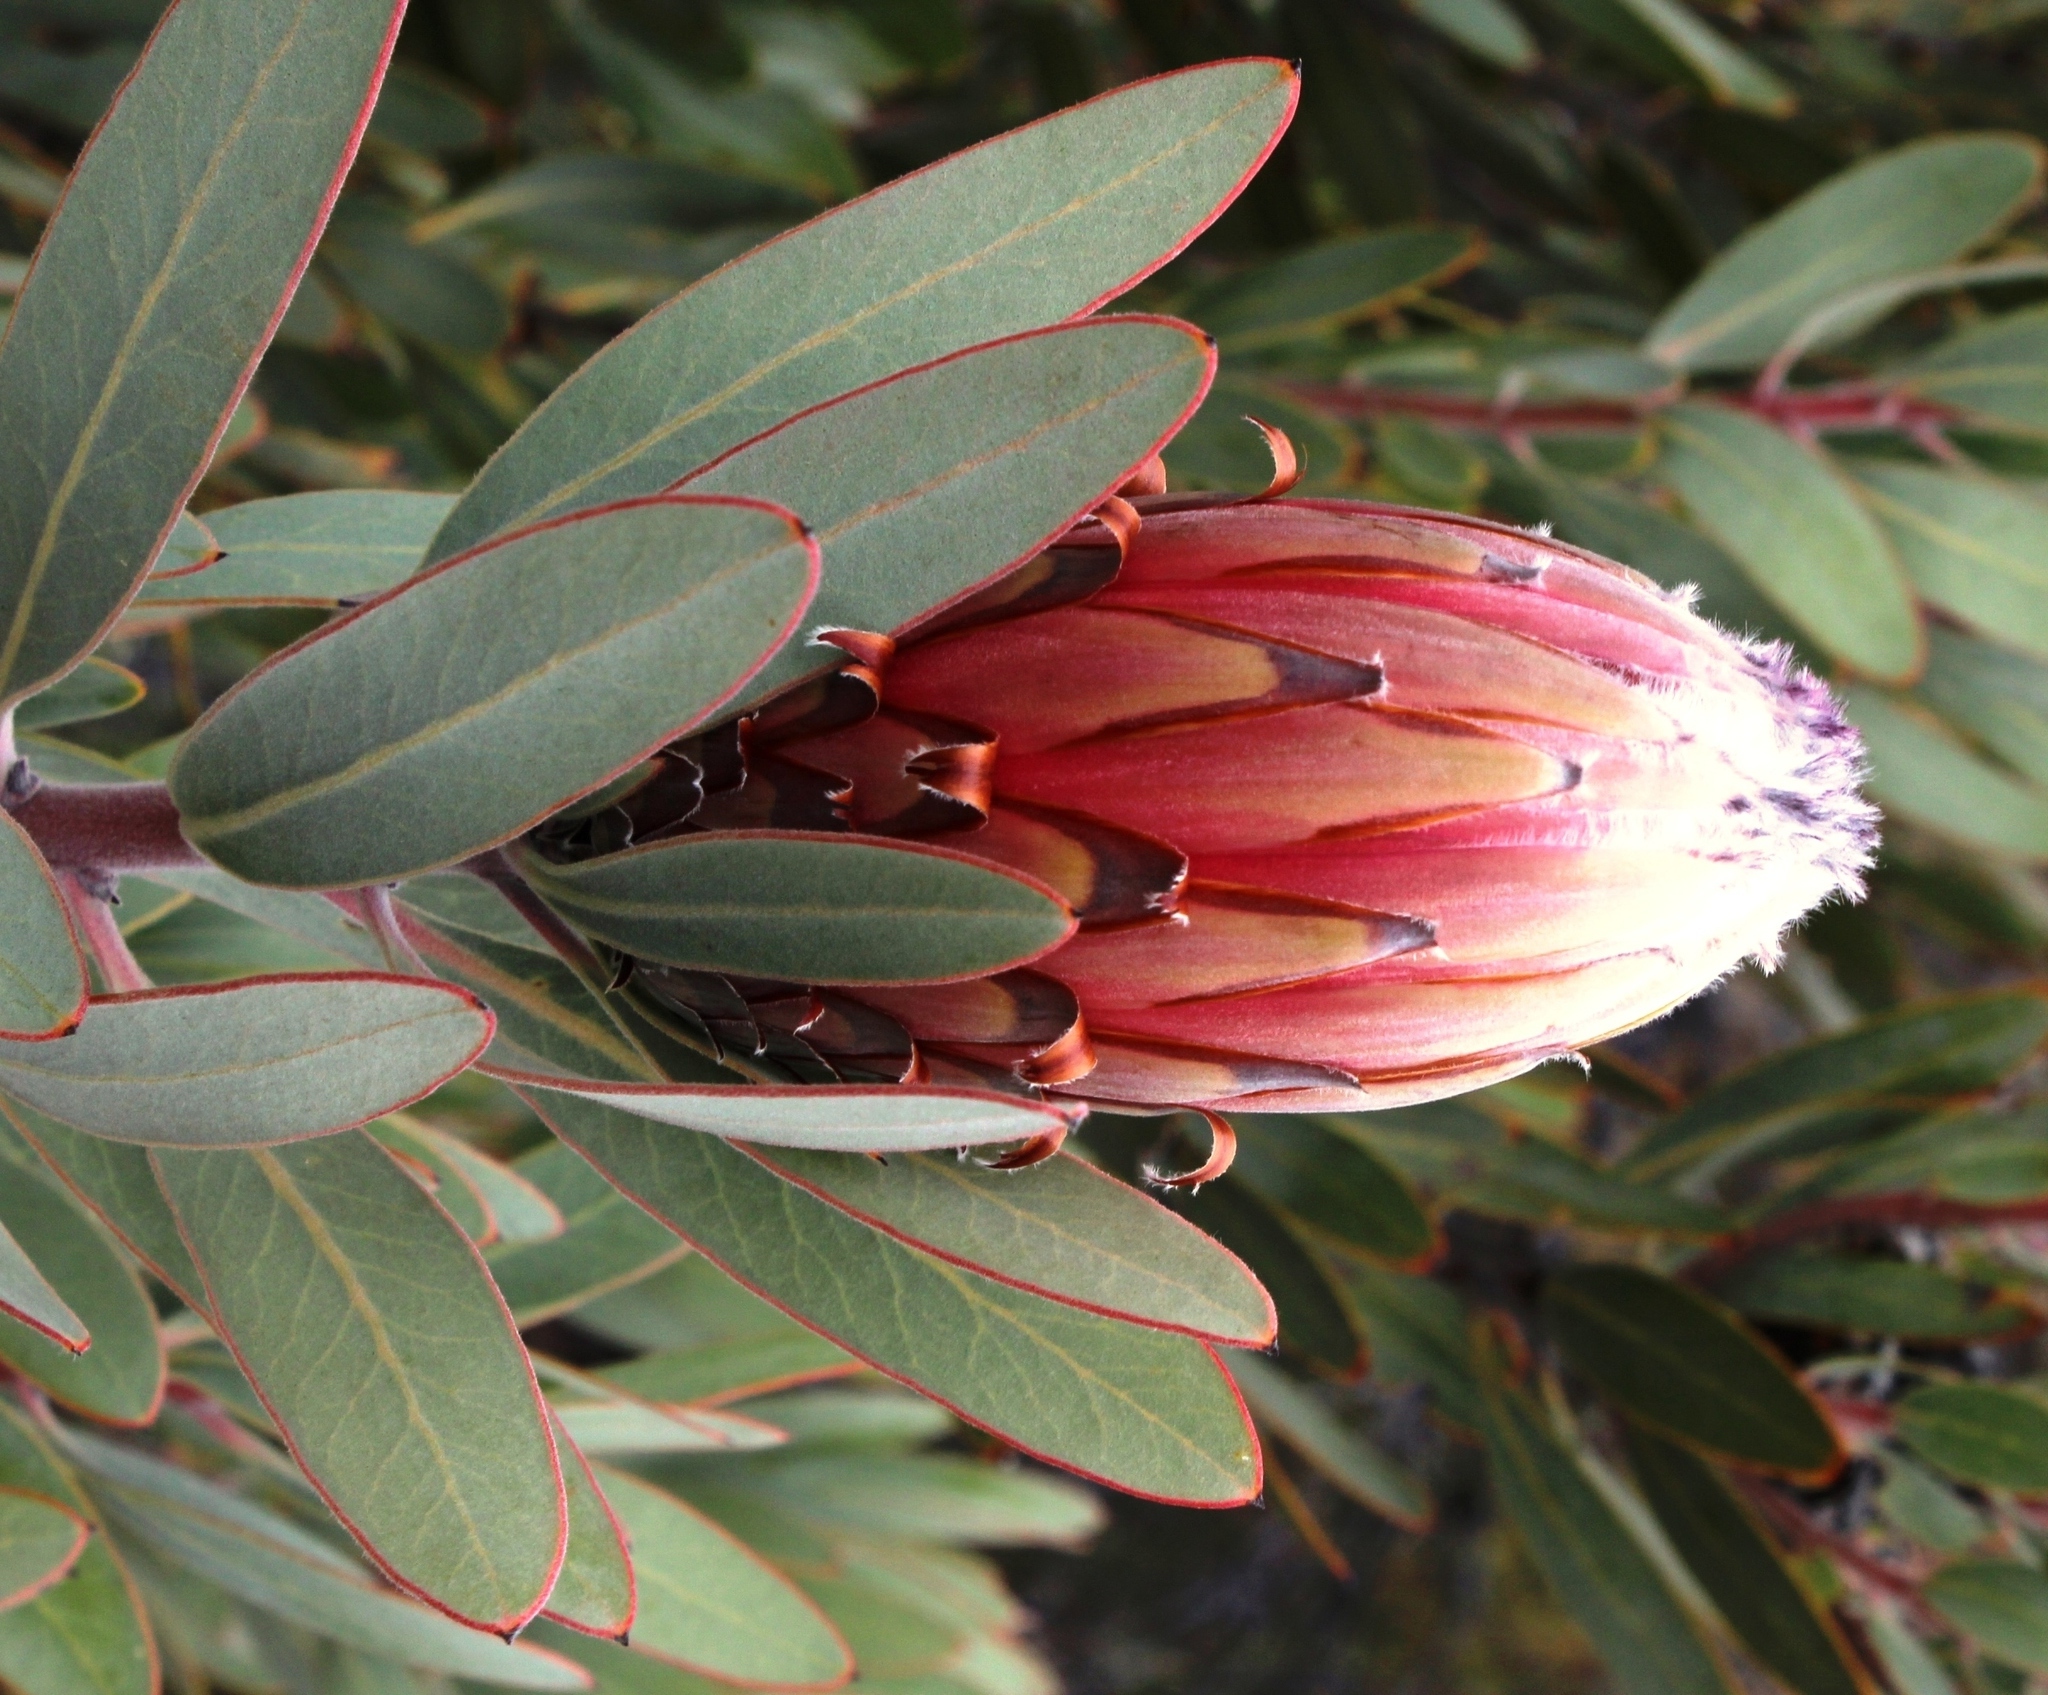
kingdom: Plantae
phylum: Tracheophyta
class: Magnoliopsida
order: Proteales
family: Proteaceae
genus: Protea
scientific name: Protea laurifolia
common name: Grey-leaf sugarbsh
